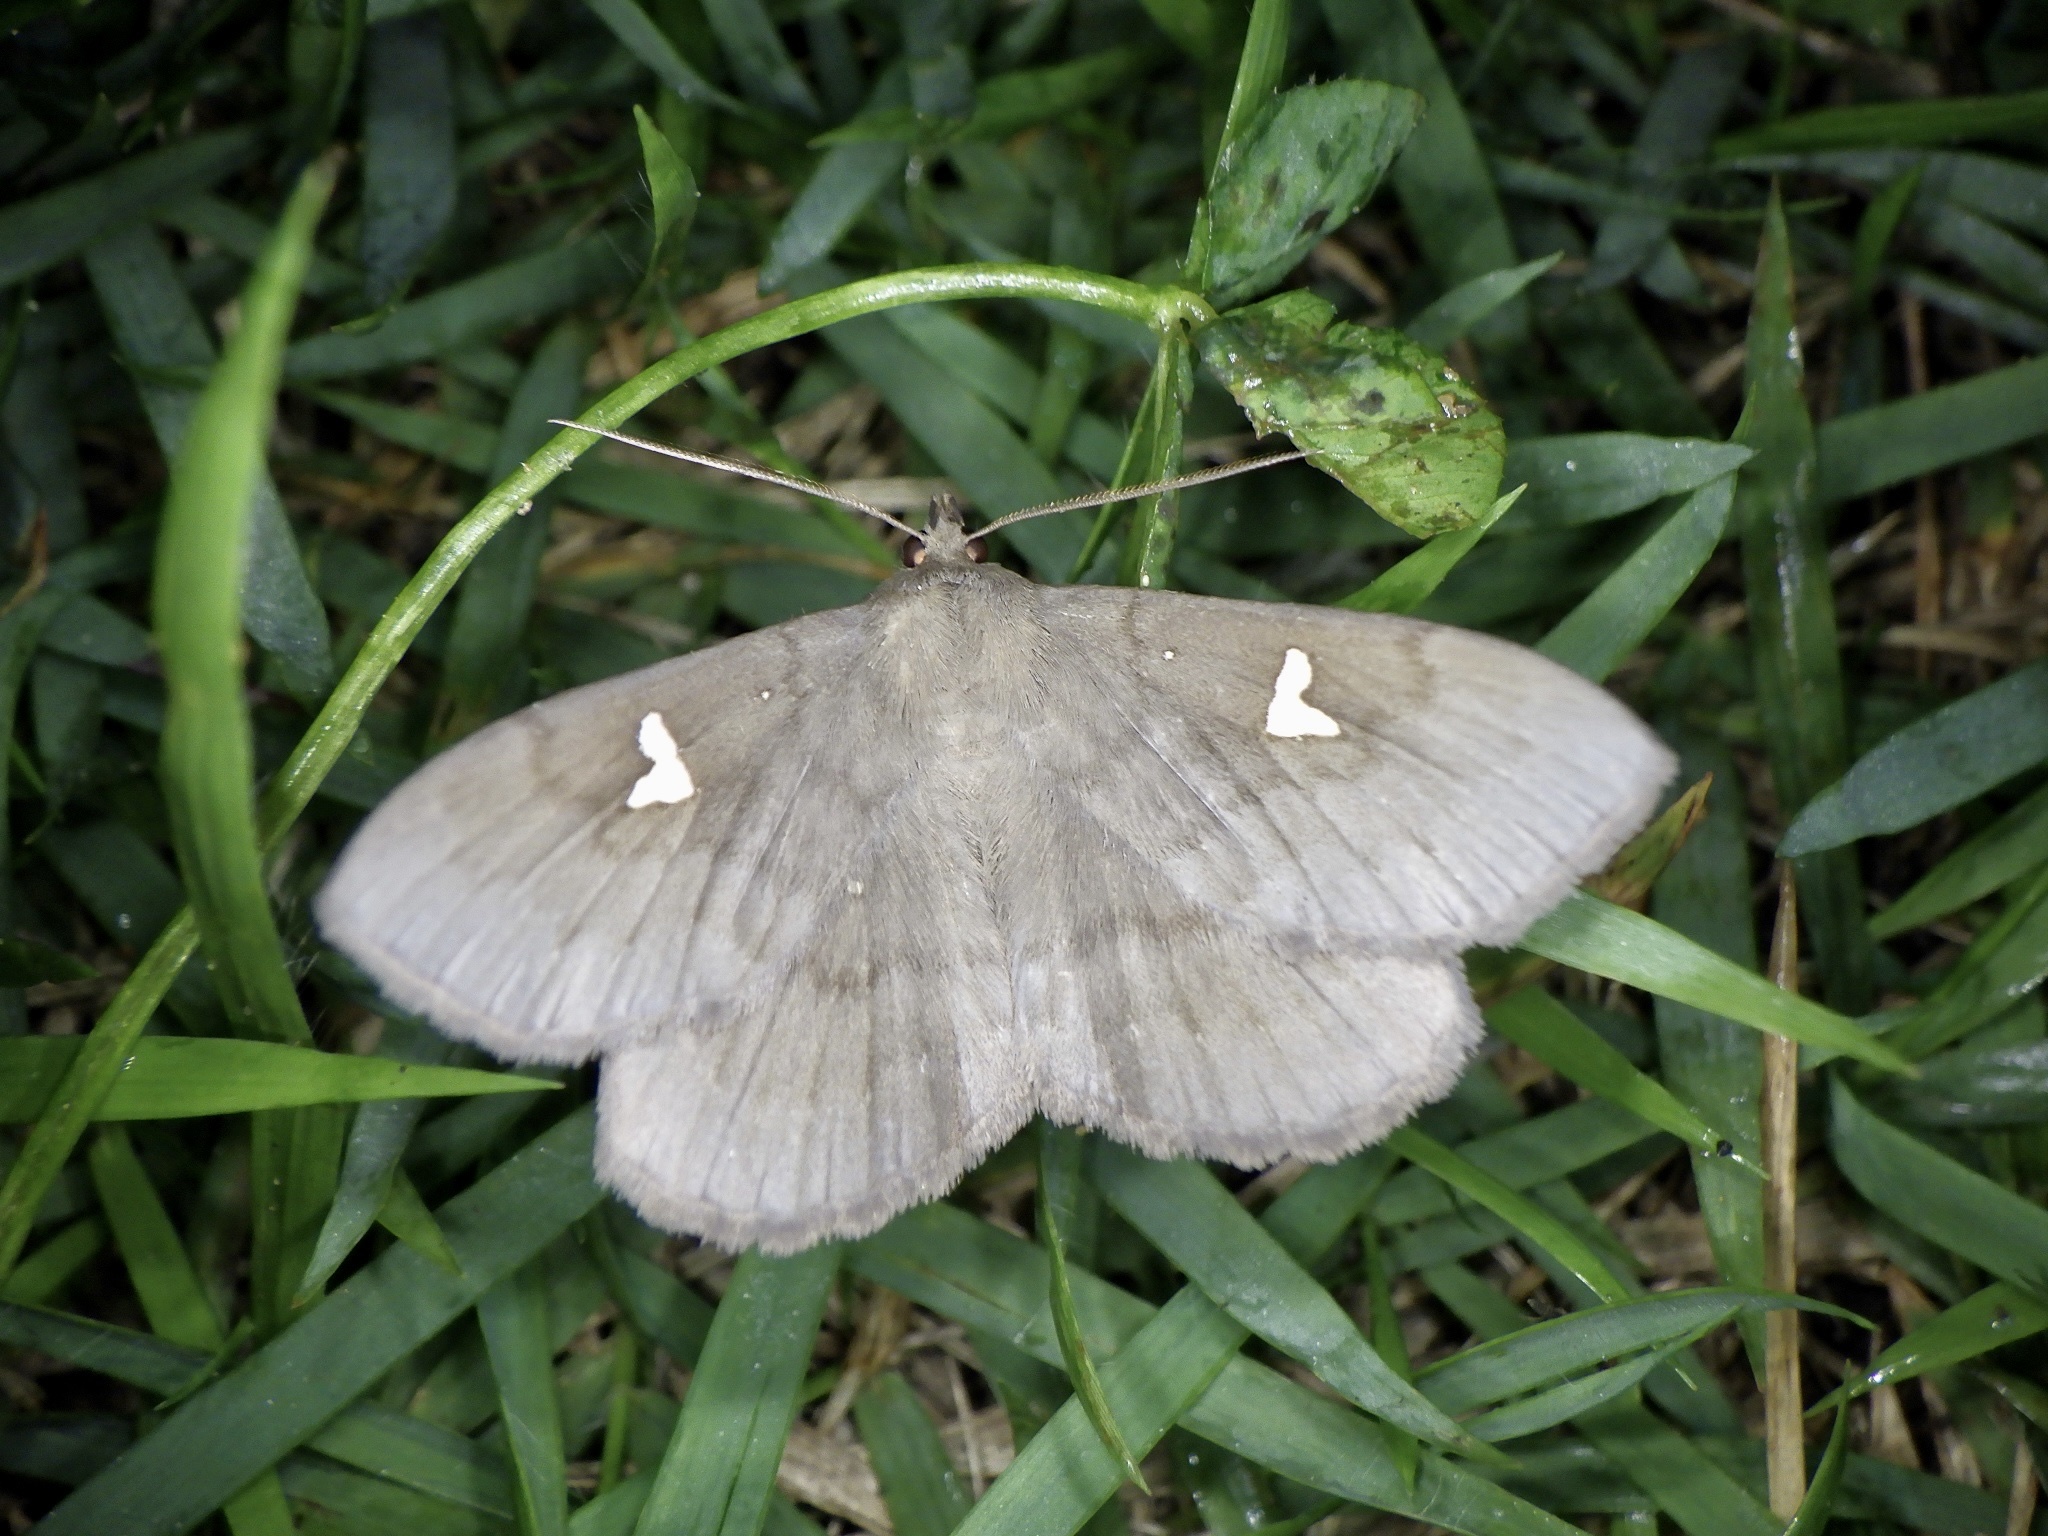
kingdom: Animalia
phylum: Arthropoda
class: Insecta
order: Lepidoptera
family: Erebidae
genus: Edessena
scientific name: Edessena hamada
